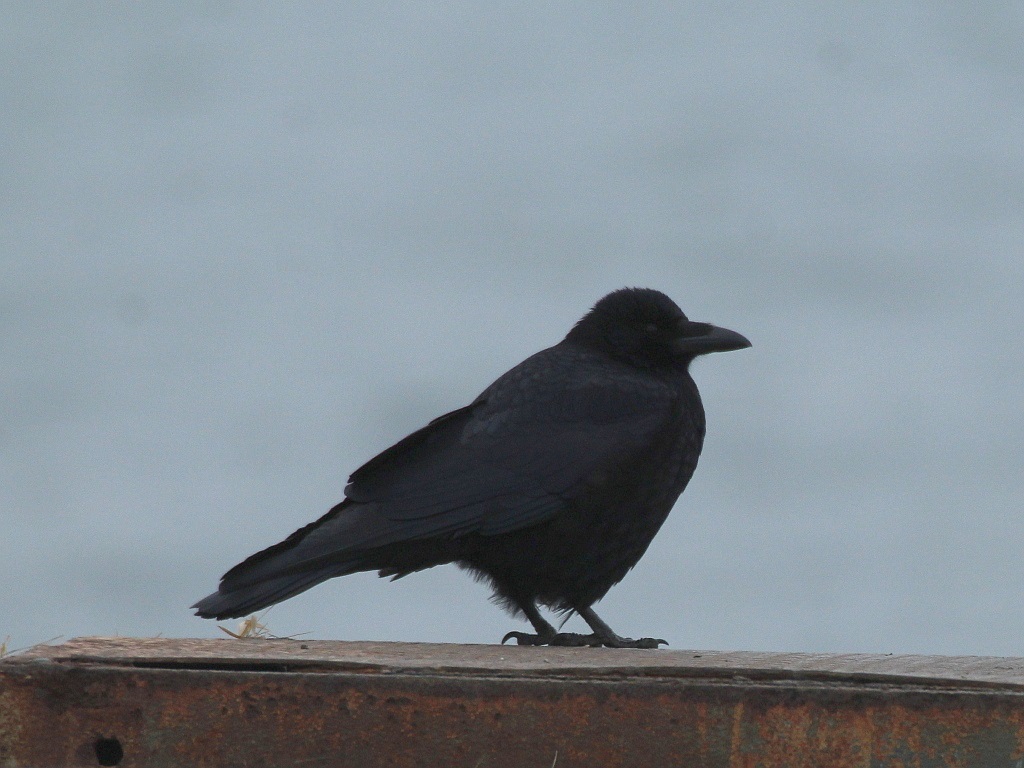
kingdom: Animalia
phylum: Chordata
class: Aves
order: Passeriformes
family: Corvidae
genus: Corvus
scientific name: Corvus corone
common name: Carrion crow
